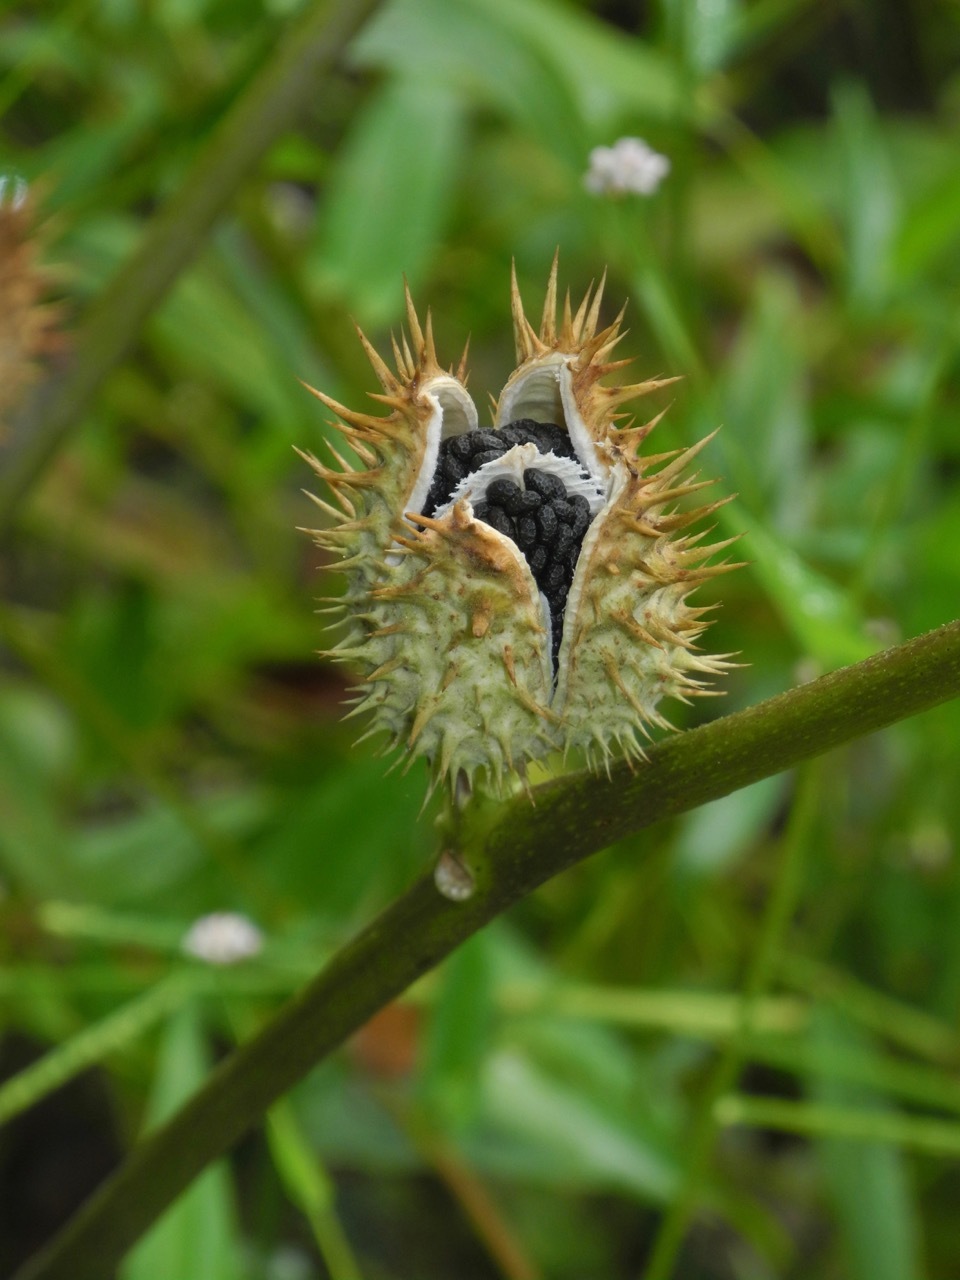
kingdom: Plantae
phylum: Tracheophyta
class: Magnoliopsida
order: Solanales
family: Solanaceae
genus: Datura
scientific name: Datura stramonium
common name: Thorn-apple
